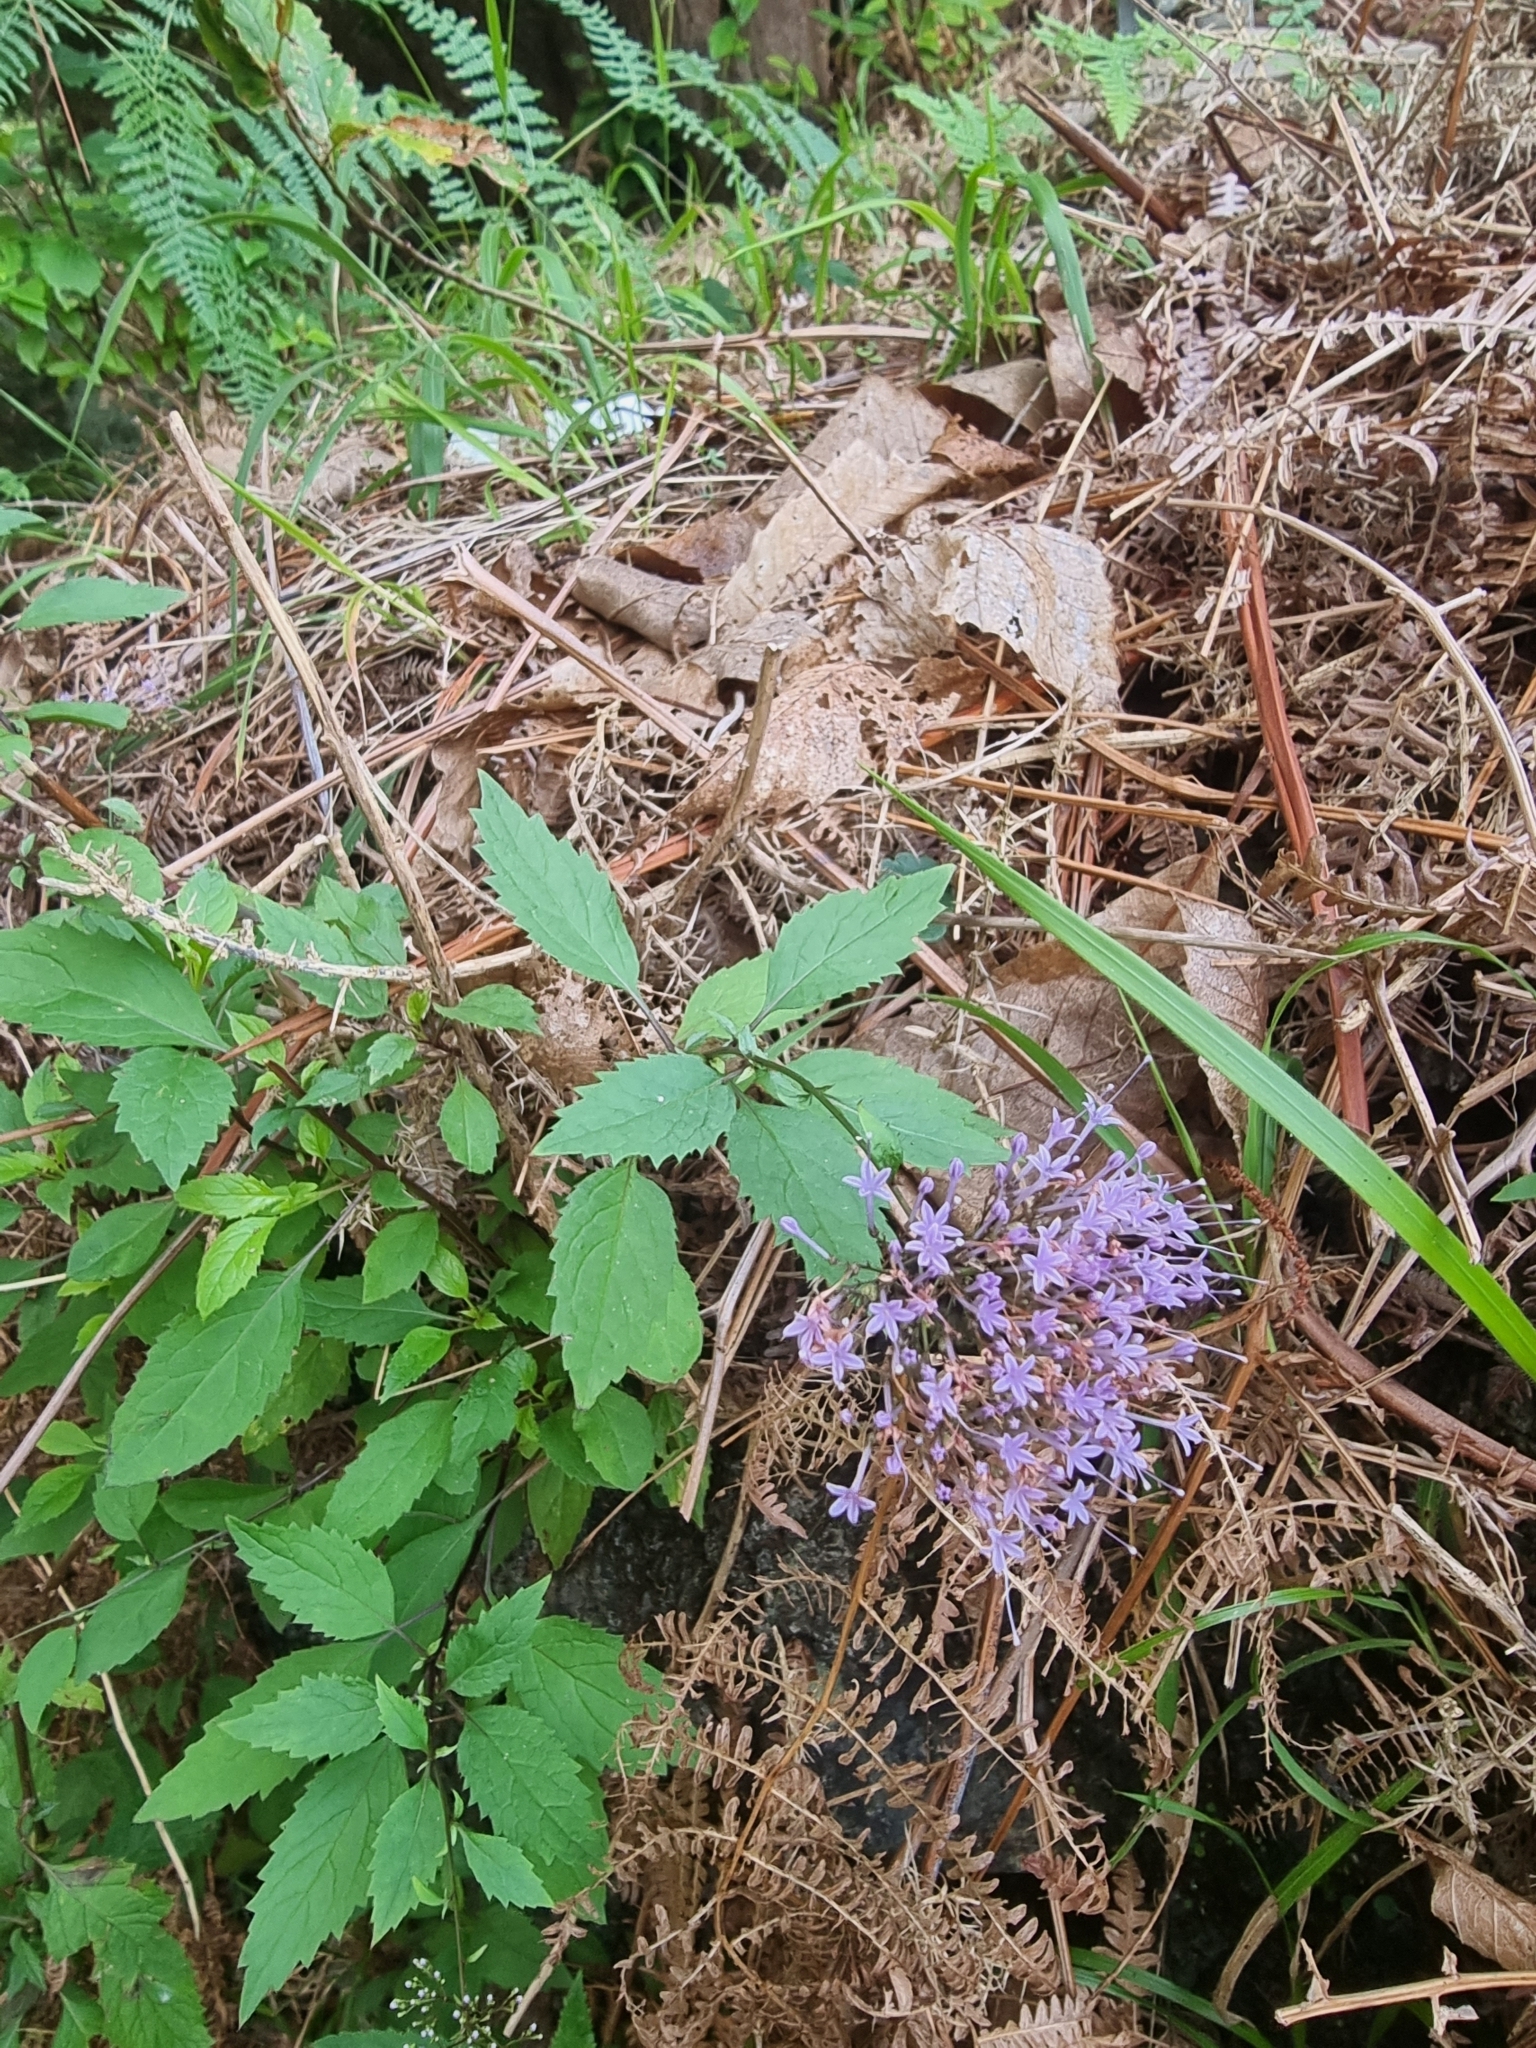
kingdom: Plantae
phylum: Tracheophyta
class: Magnoliopsida
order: Asterales
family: Campanulaceae
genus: Trachelium
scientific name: Trachelium caeruleum
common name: Throatwort
